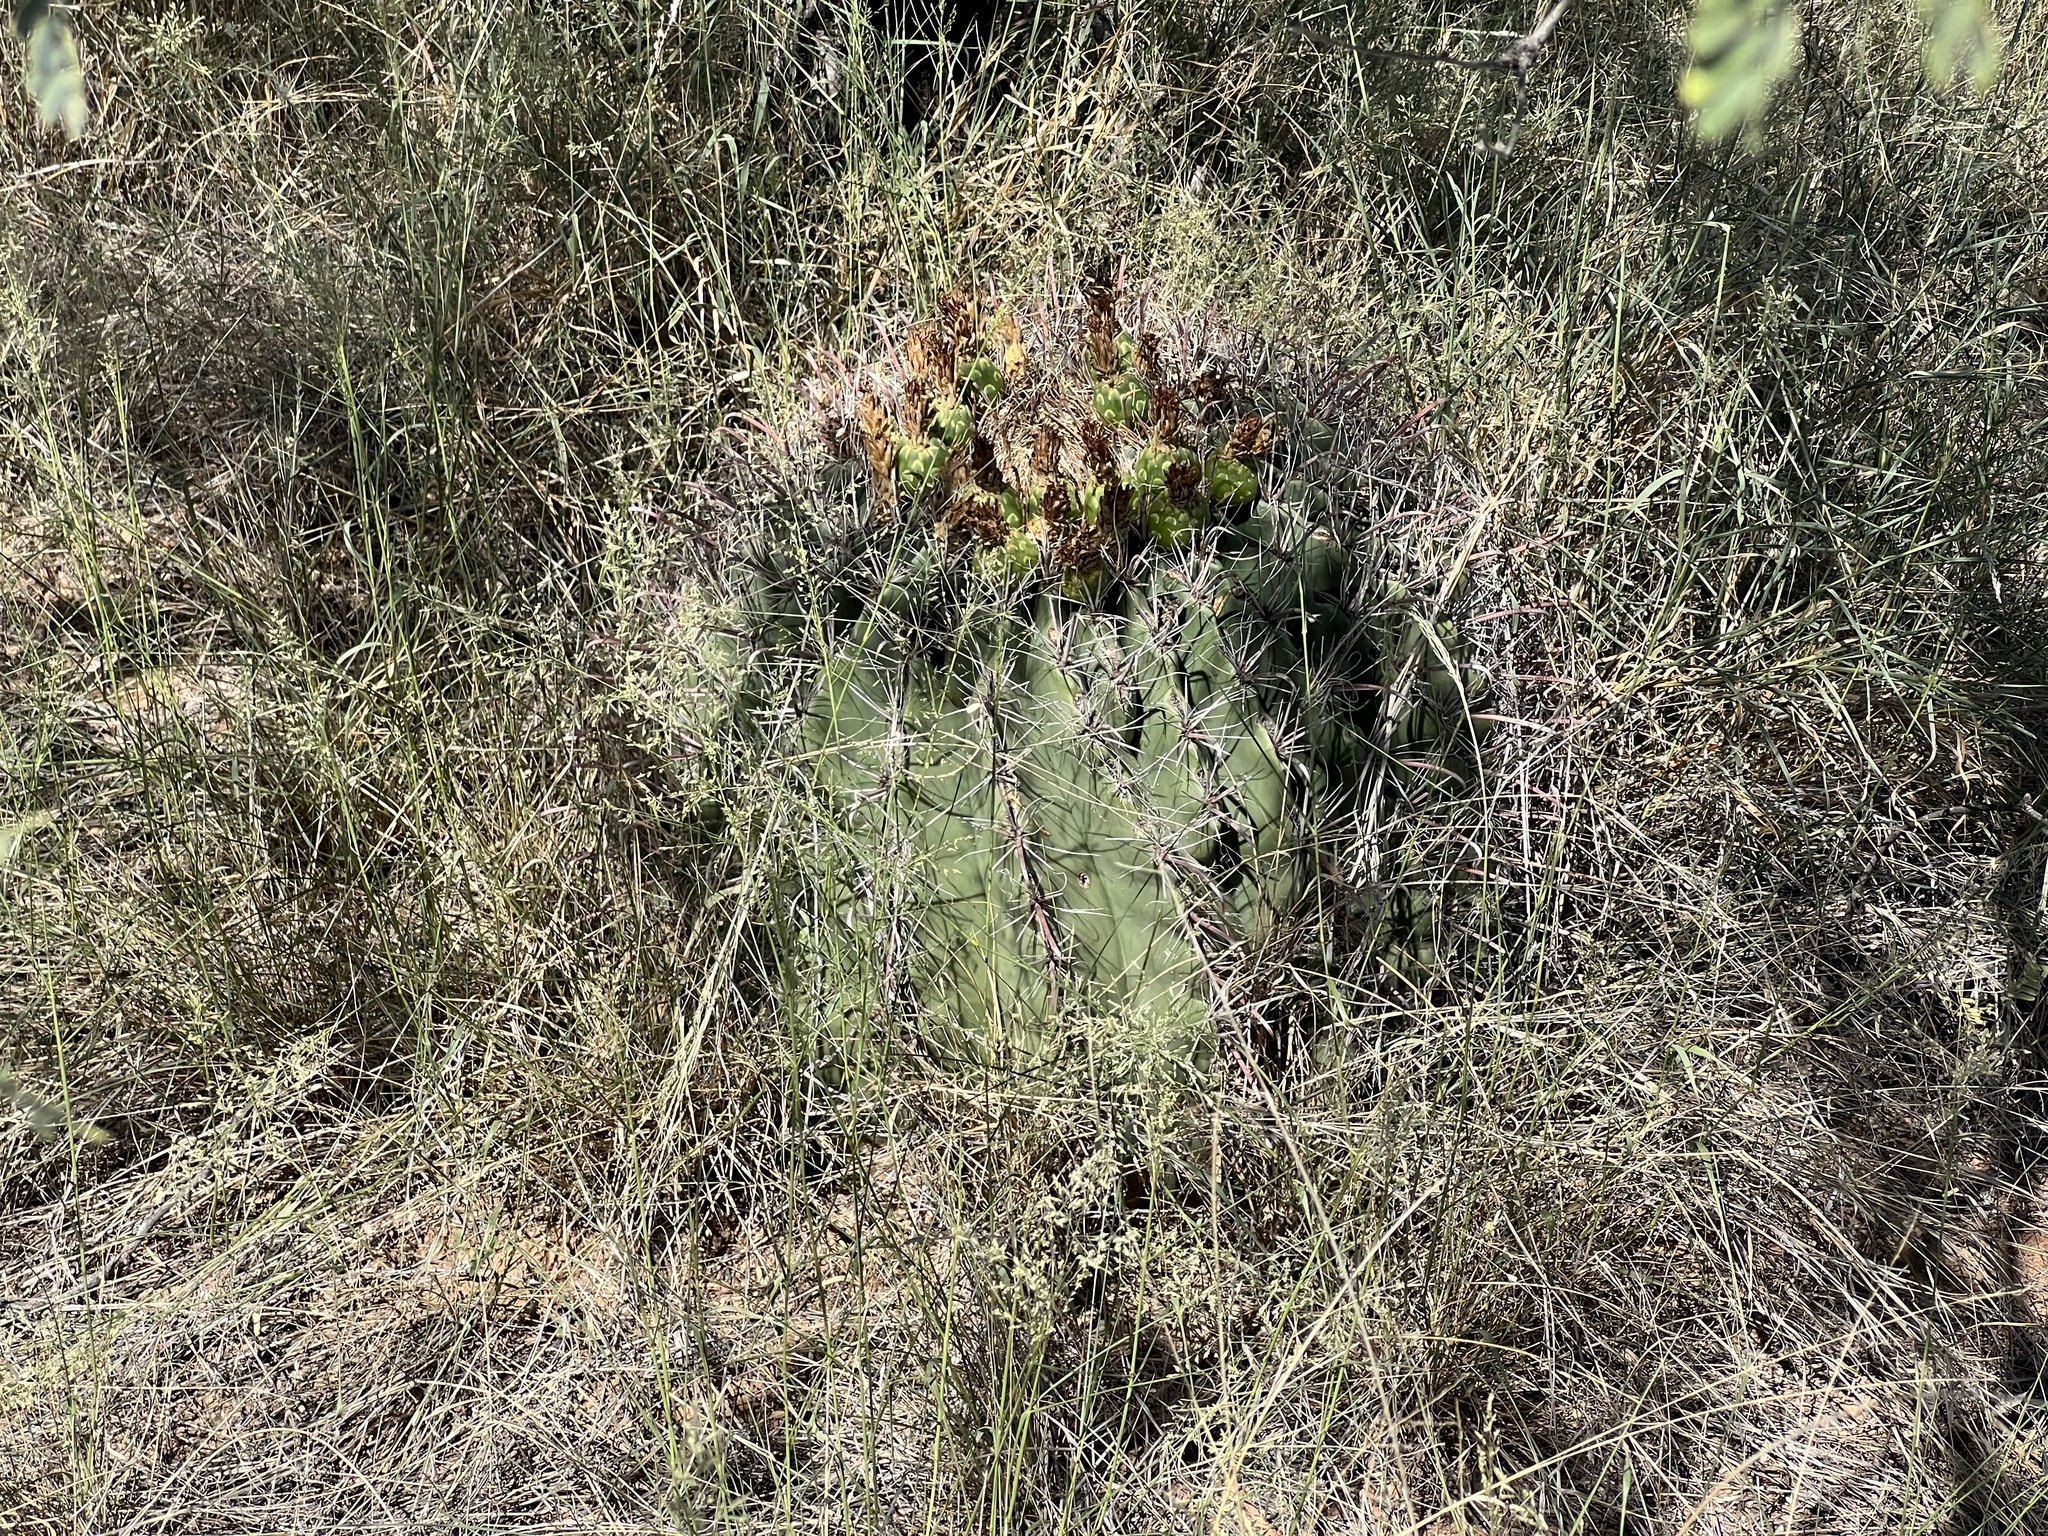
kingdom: Plantae
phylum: Tracheophyta
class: Magnoliopsida
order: Caryophyllales
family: Cactaceae
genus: Ferocactus
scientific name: Ferocactus wislizeni
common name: Candy barrel cactus
